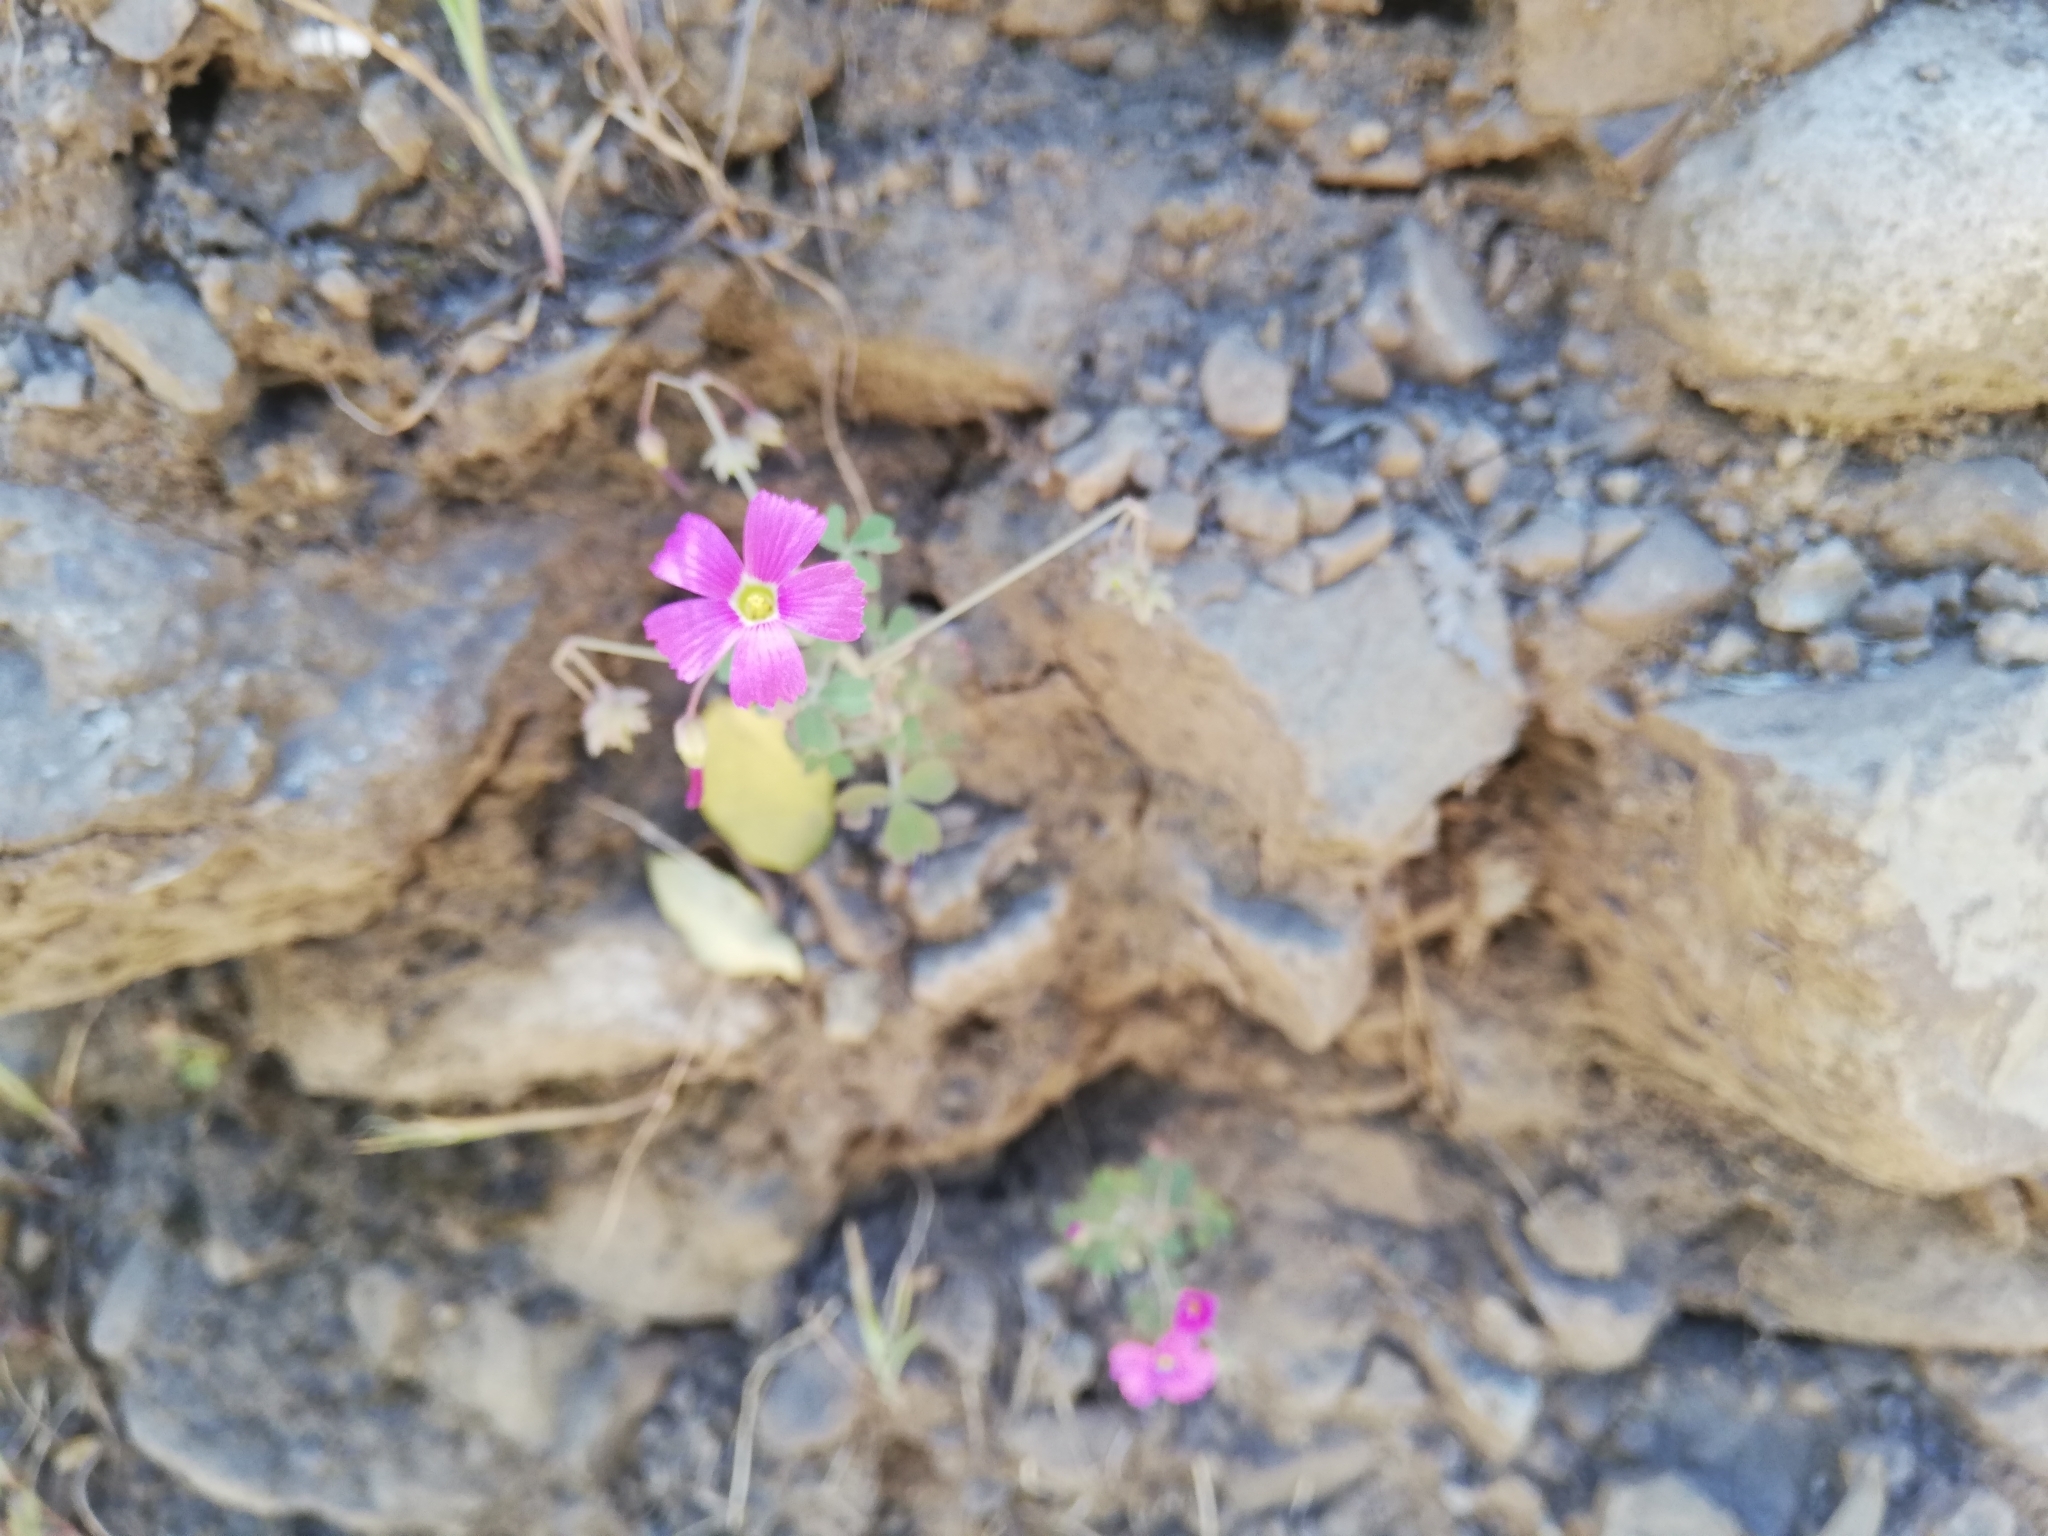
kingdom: Plantae
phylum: Tracheophyta
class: Magnoliopsida
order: Oxalidales
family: Oxalidaceae
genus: Oxalis
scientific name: Oxalis rosea
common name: Annual pink-sorrel
